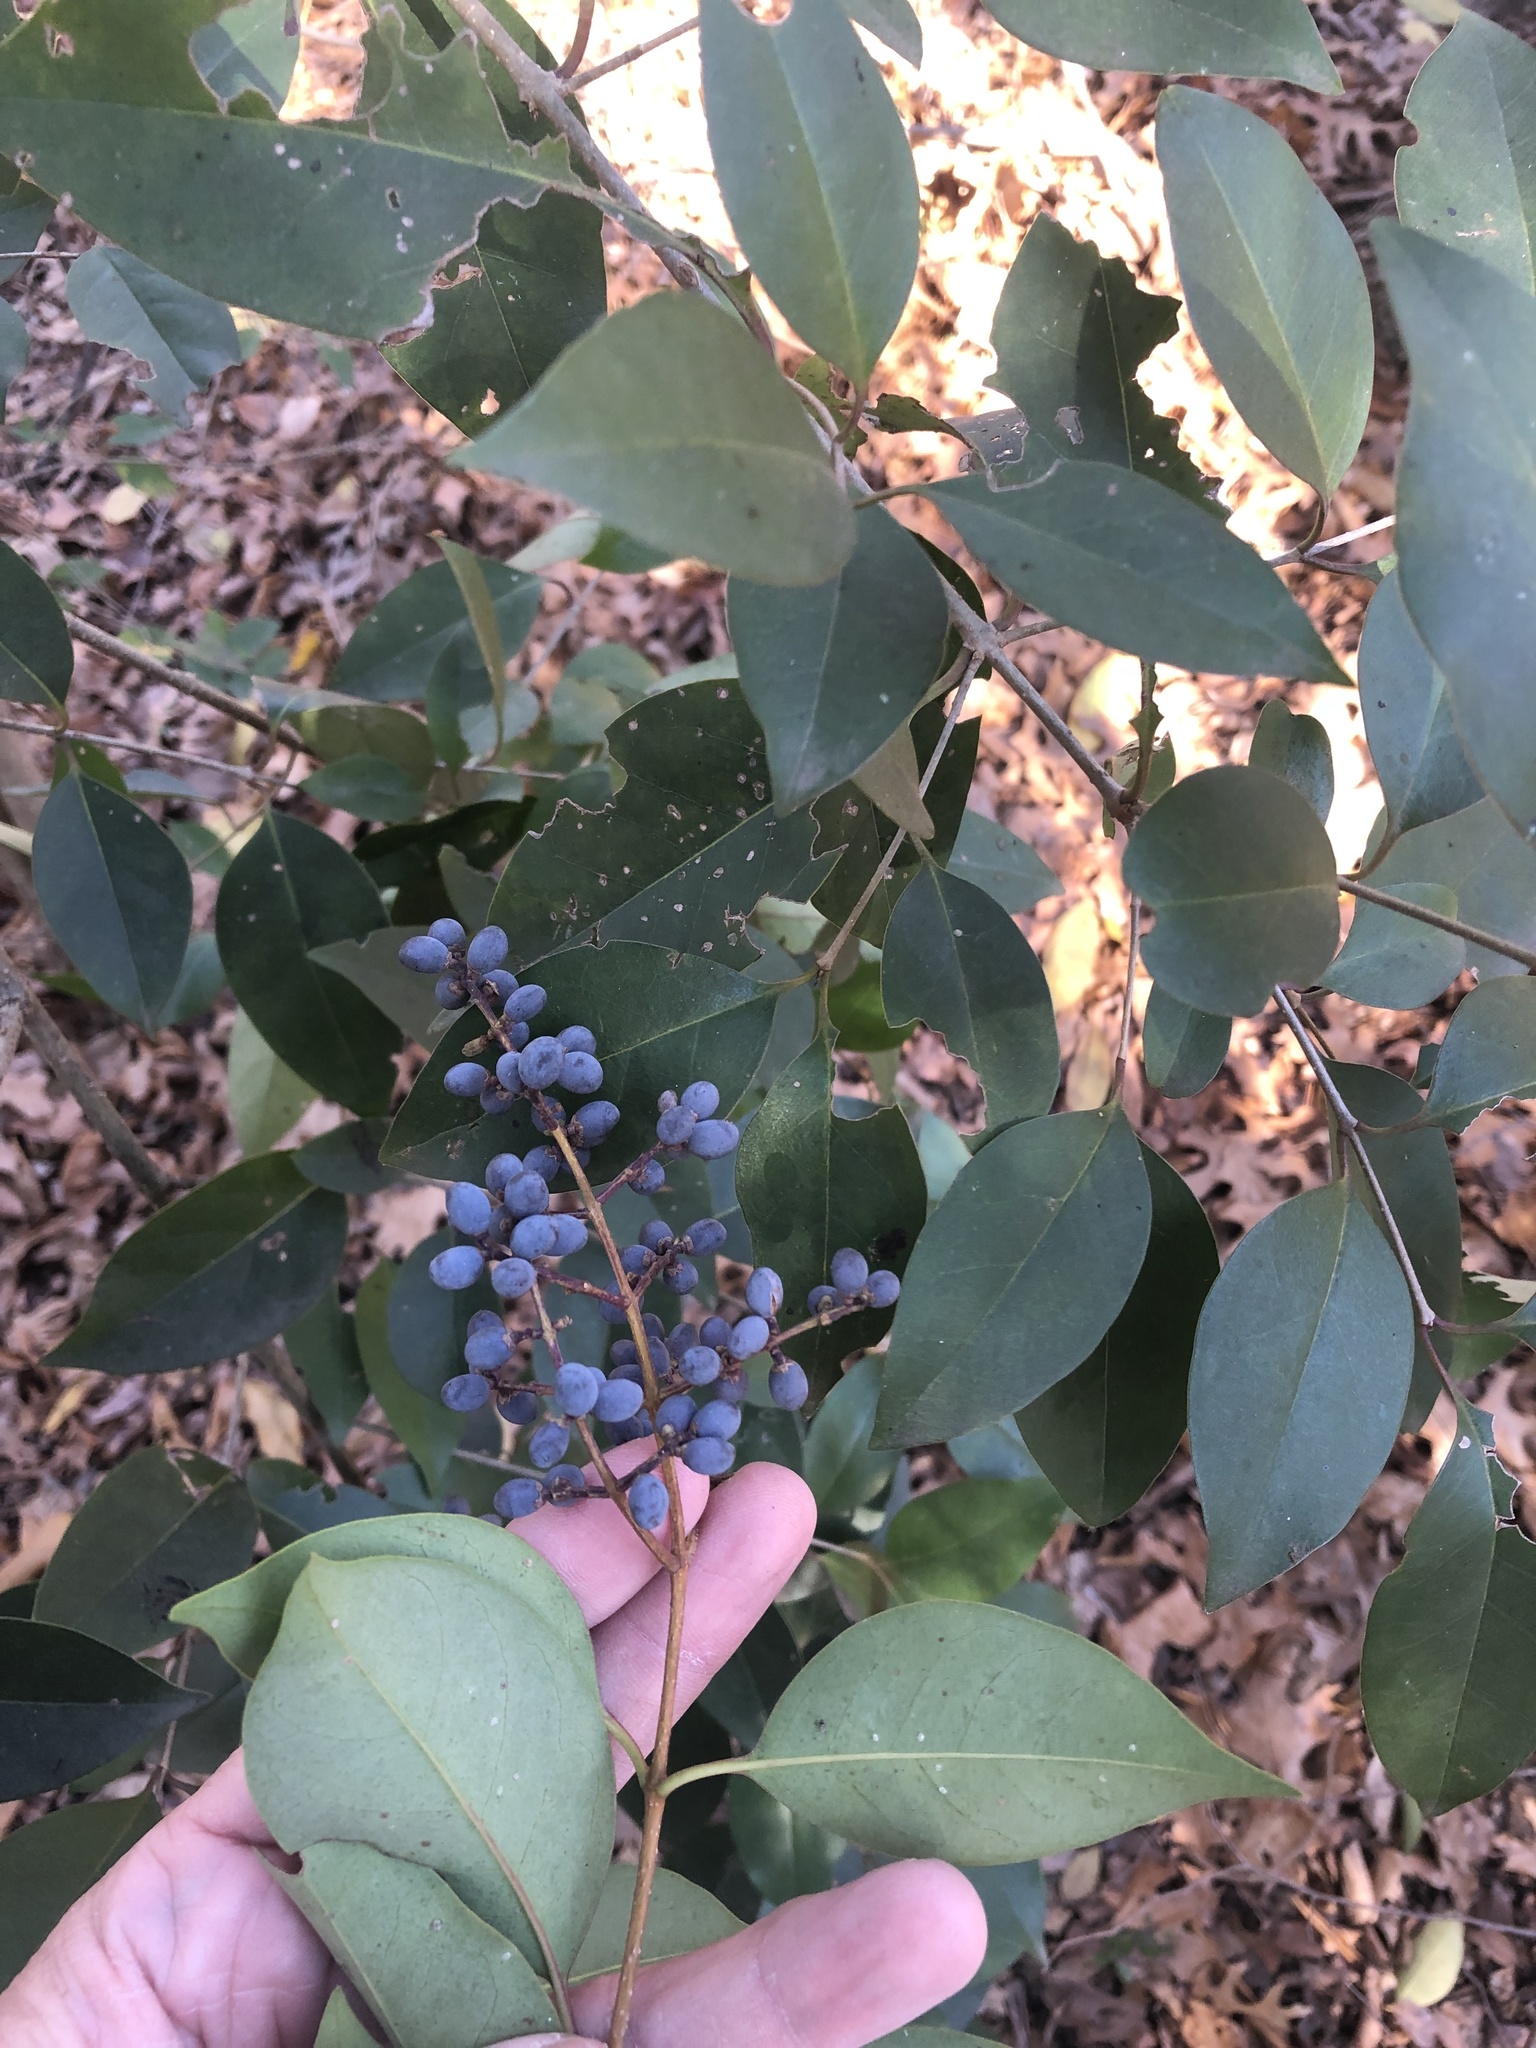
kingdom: Plantae
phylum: Tracheophyta
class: Magnoliopsida
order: Lamiales
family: Oleaceae
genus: Ligustrum
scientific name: Ligustrum lucidum
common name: Glossy privet
